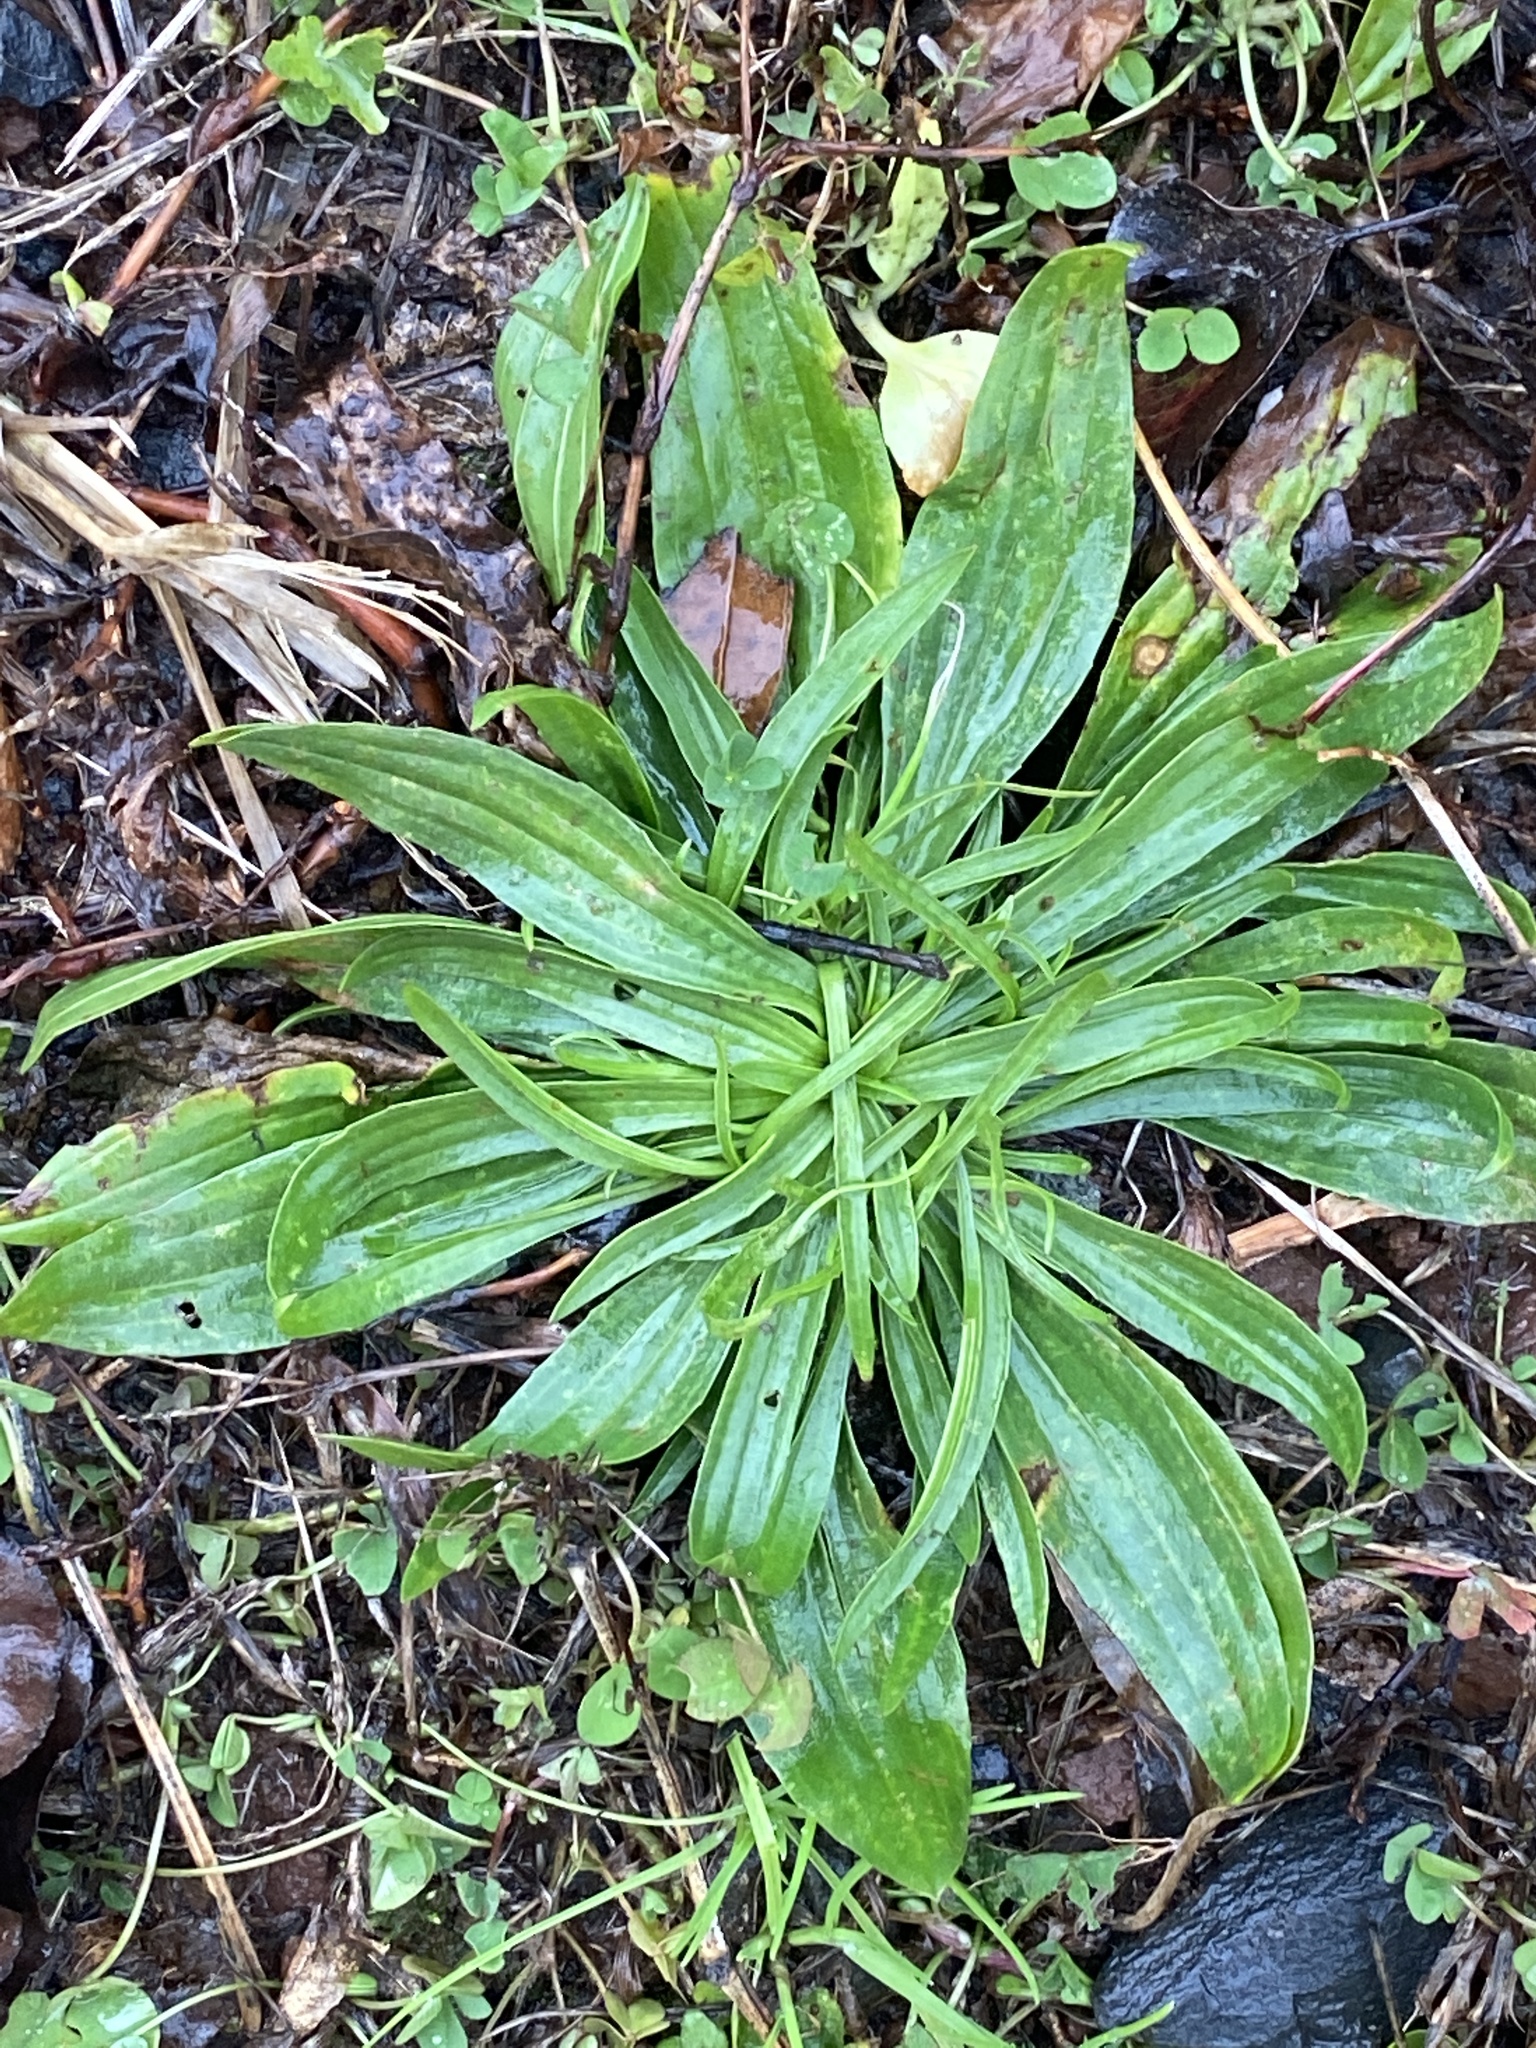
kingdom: Plantae
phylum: Tracheophyta
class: Magnoliopsida
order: Lamiales
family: Plantaginaceae
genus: Plantago
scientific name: Plantago lanceolata
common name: Ribwort plantain
